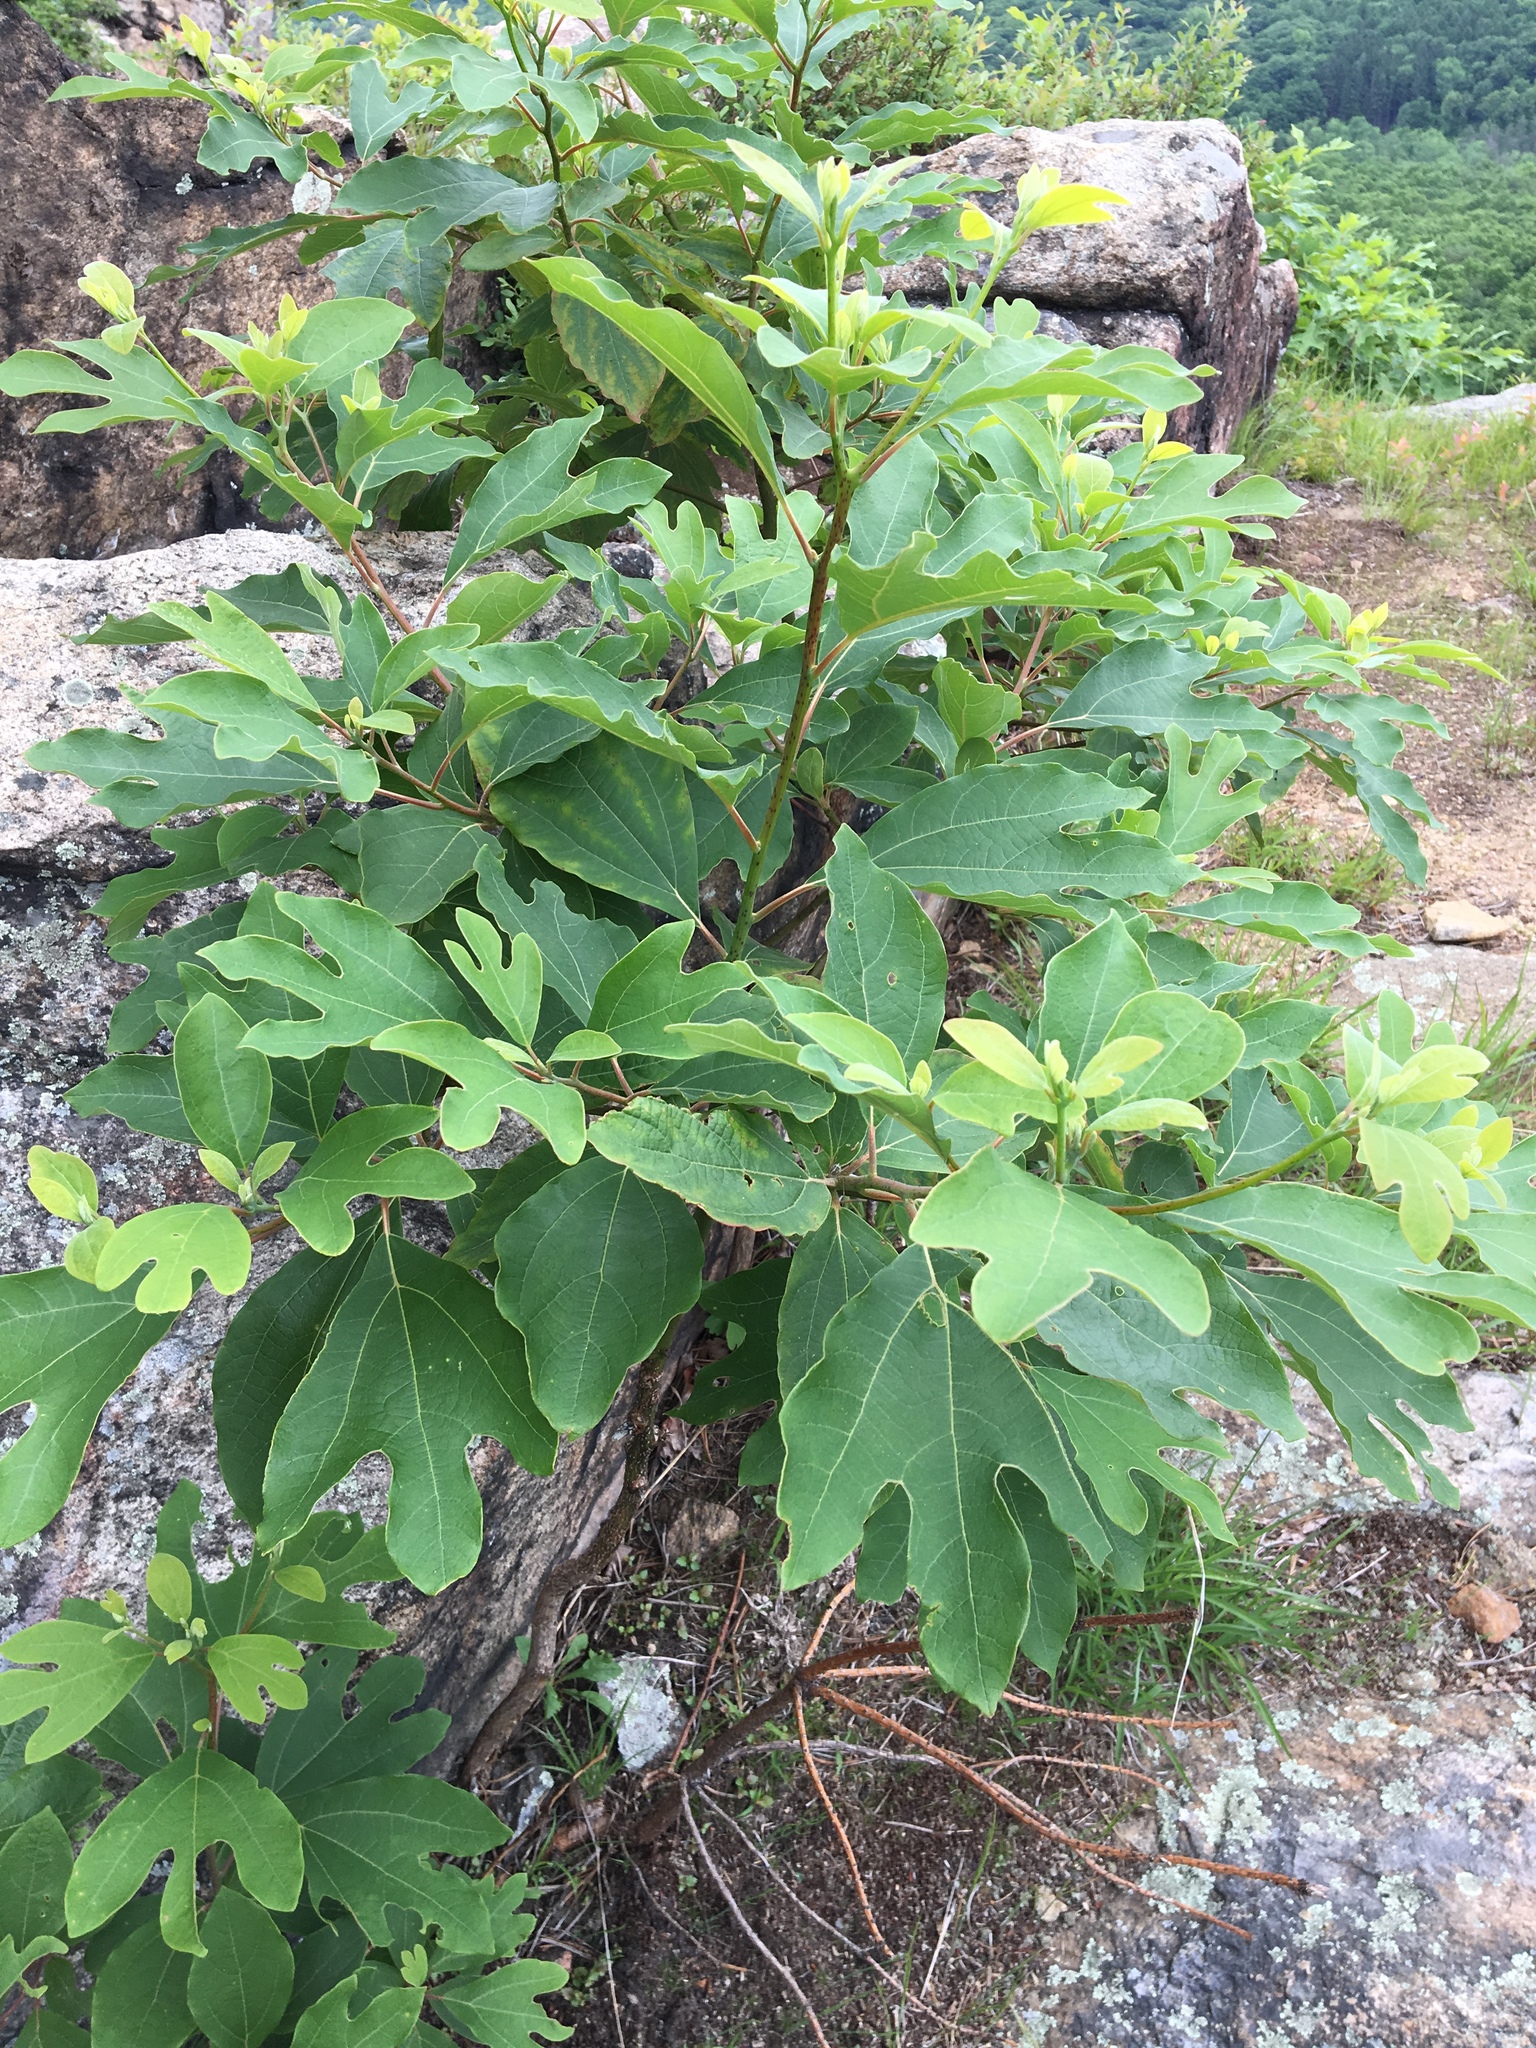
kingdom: Plantae
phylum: Tracheophyta
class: Magnoliopsida
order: Laurales
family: Lauraceae
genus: Sassafras
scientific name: Sassafras albidum
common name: Sassafras
